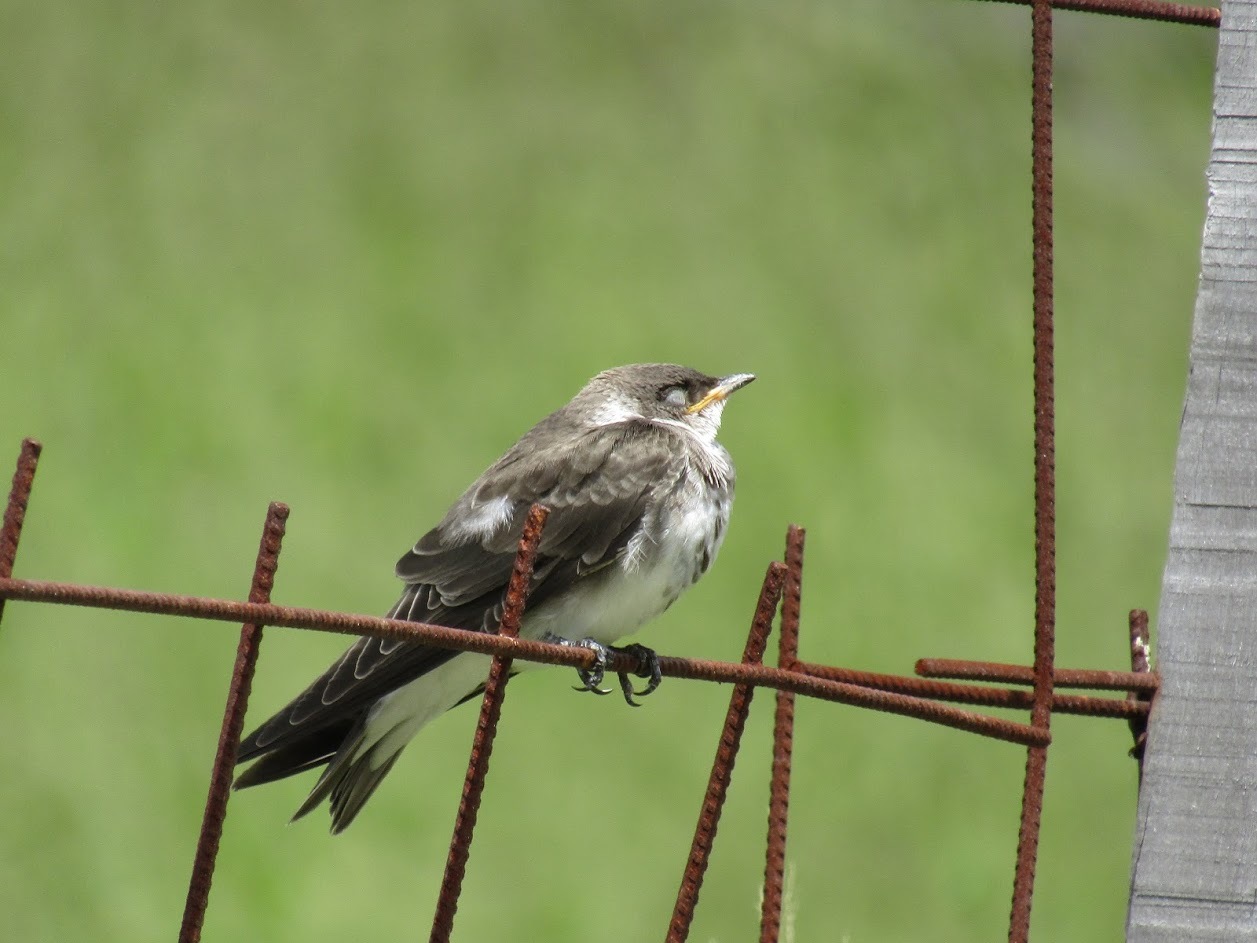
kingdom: Animalia
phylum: Chordata
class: Aves
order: Passeriformes
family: Hirundinidae
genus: Progne
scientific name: Progne tapera
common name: Brown-chested martin
